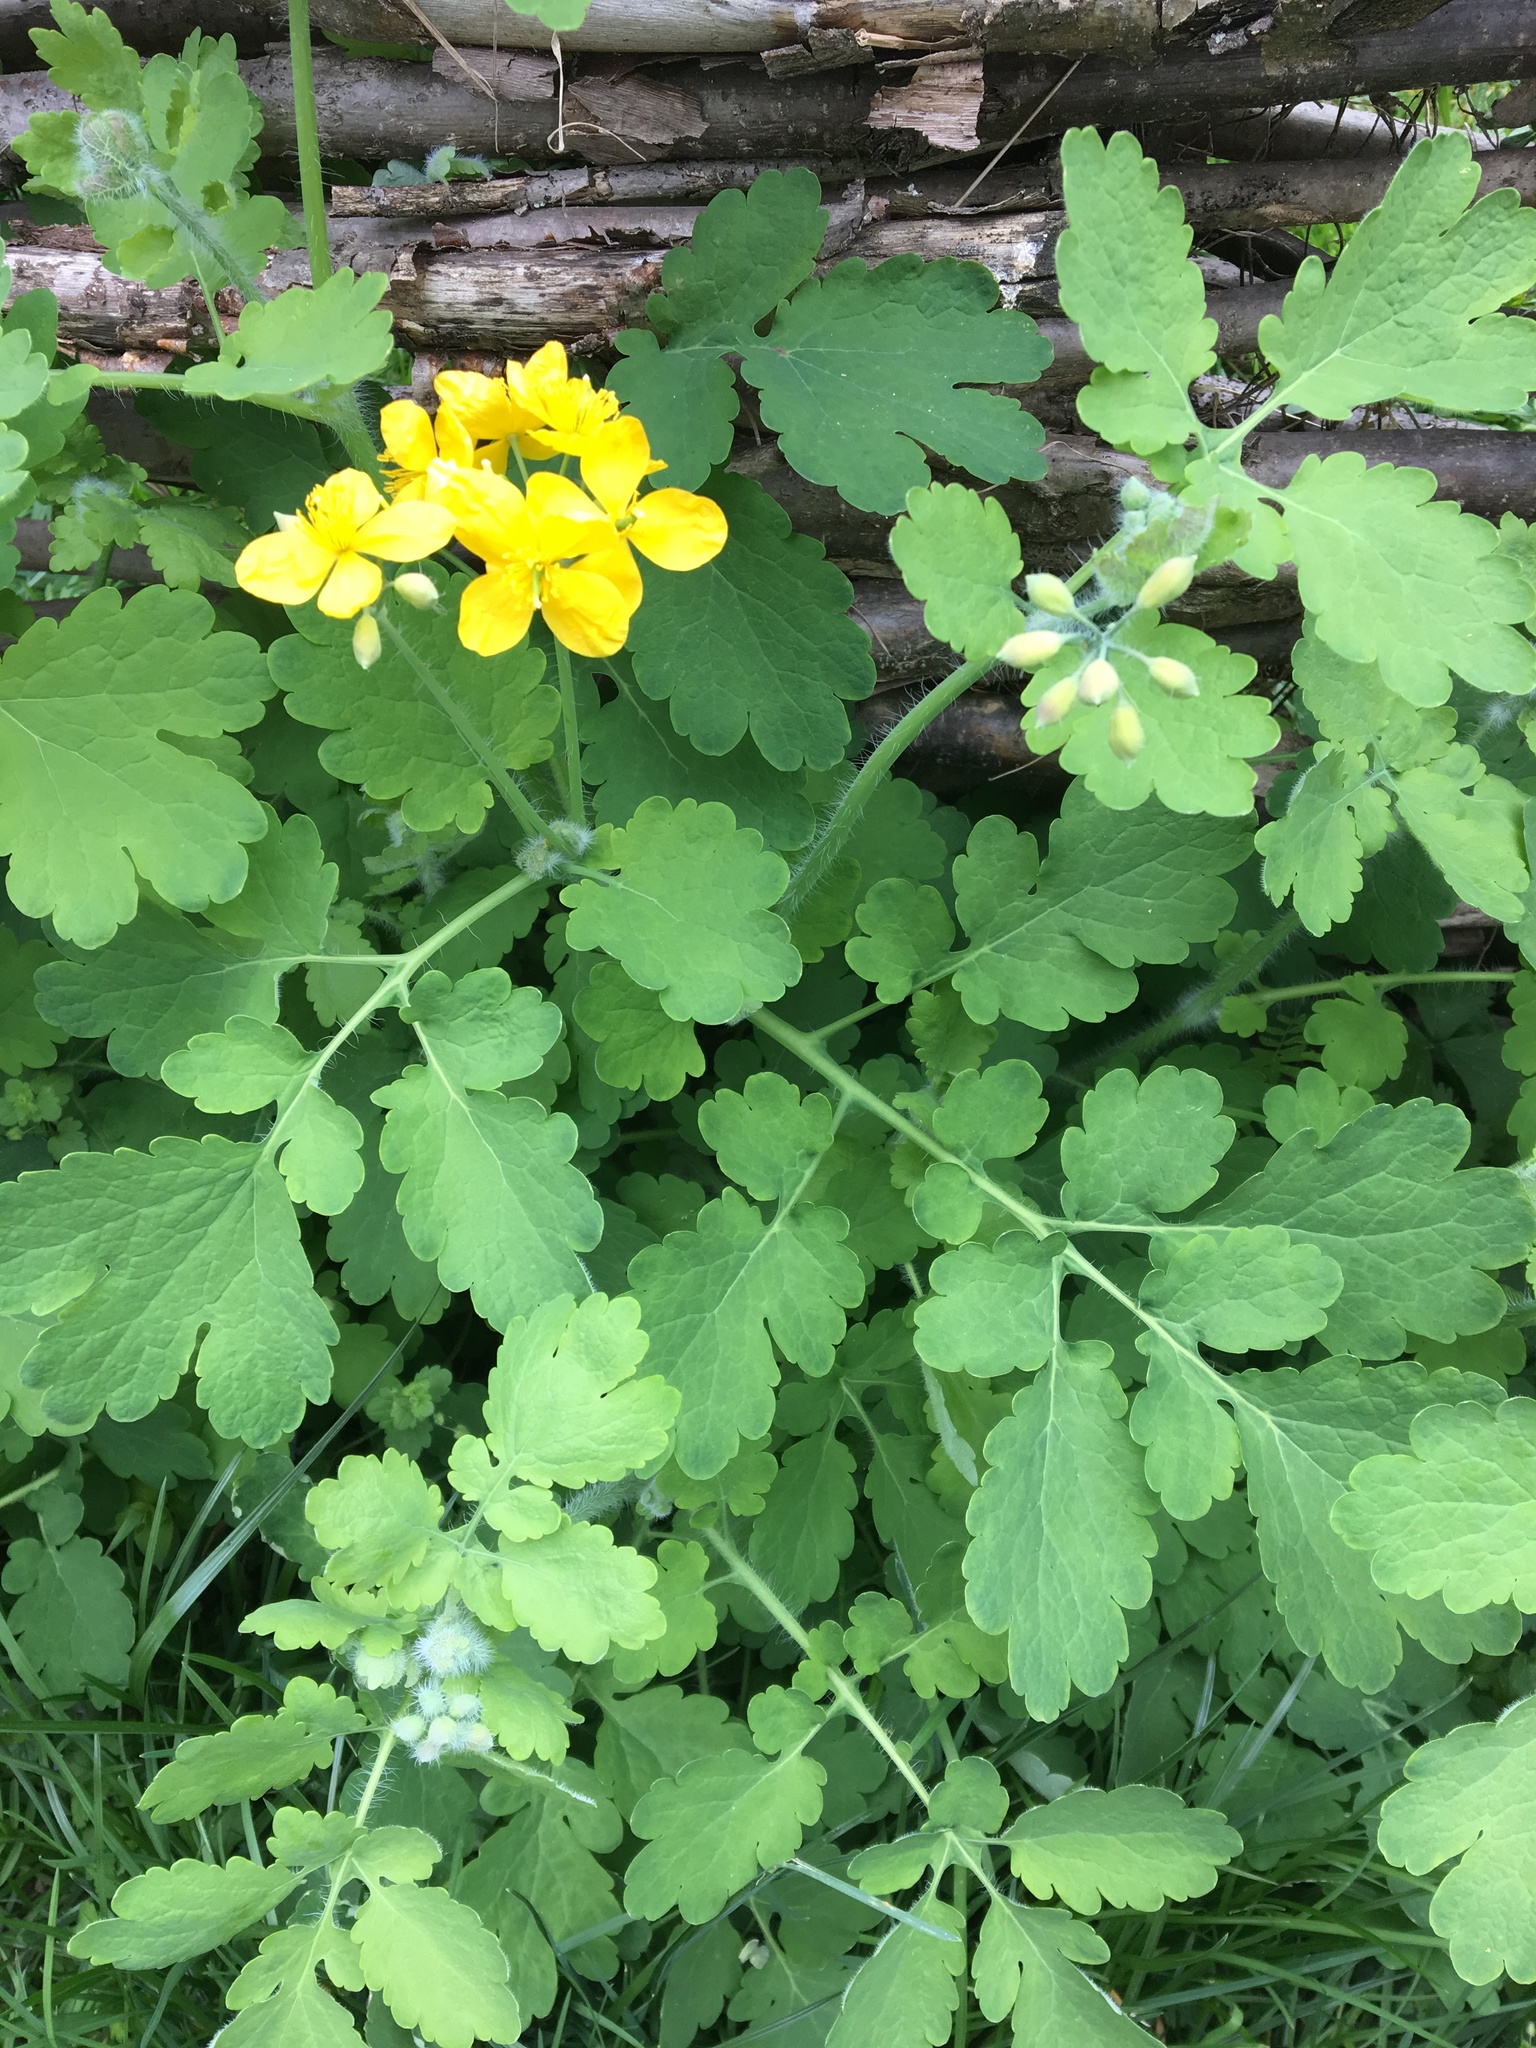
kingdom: Plantae
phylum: Tracheophyta
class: Magnoliopsida
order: Ranunculales
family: Papaveraceae
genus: Chelidonium
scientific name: Chelidonium majus
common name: Greater celandine
